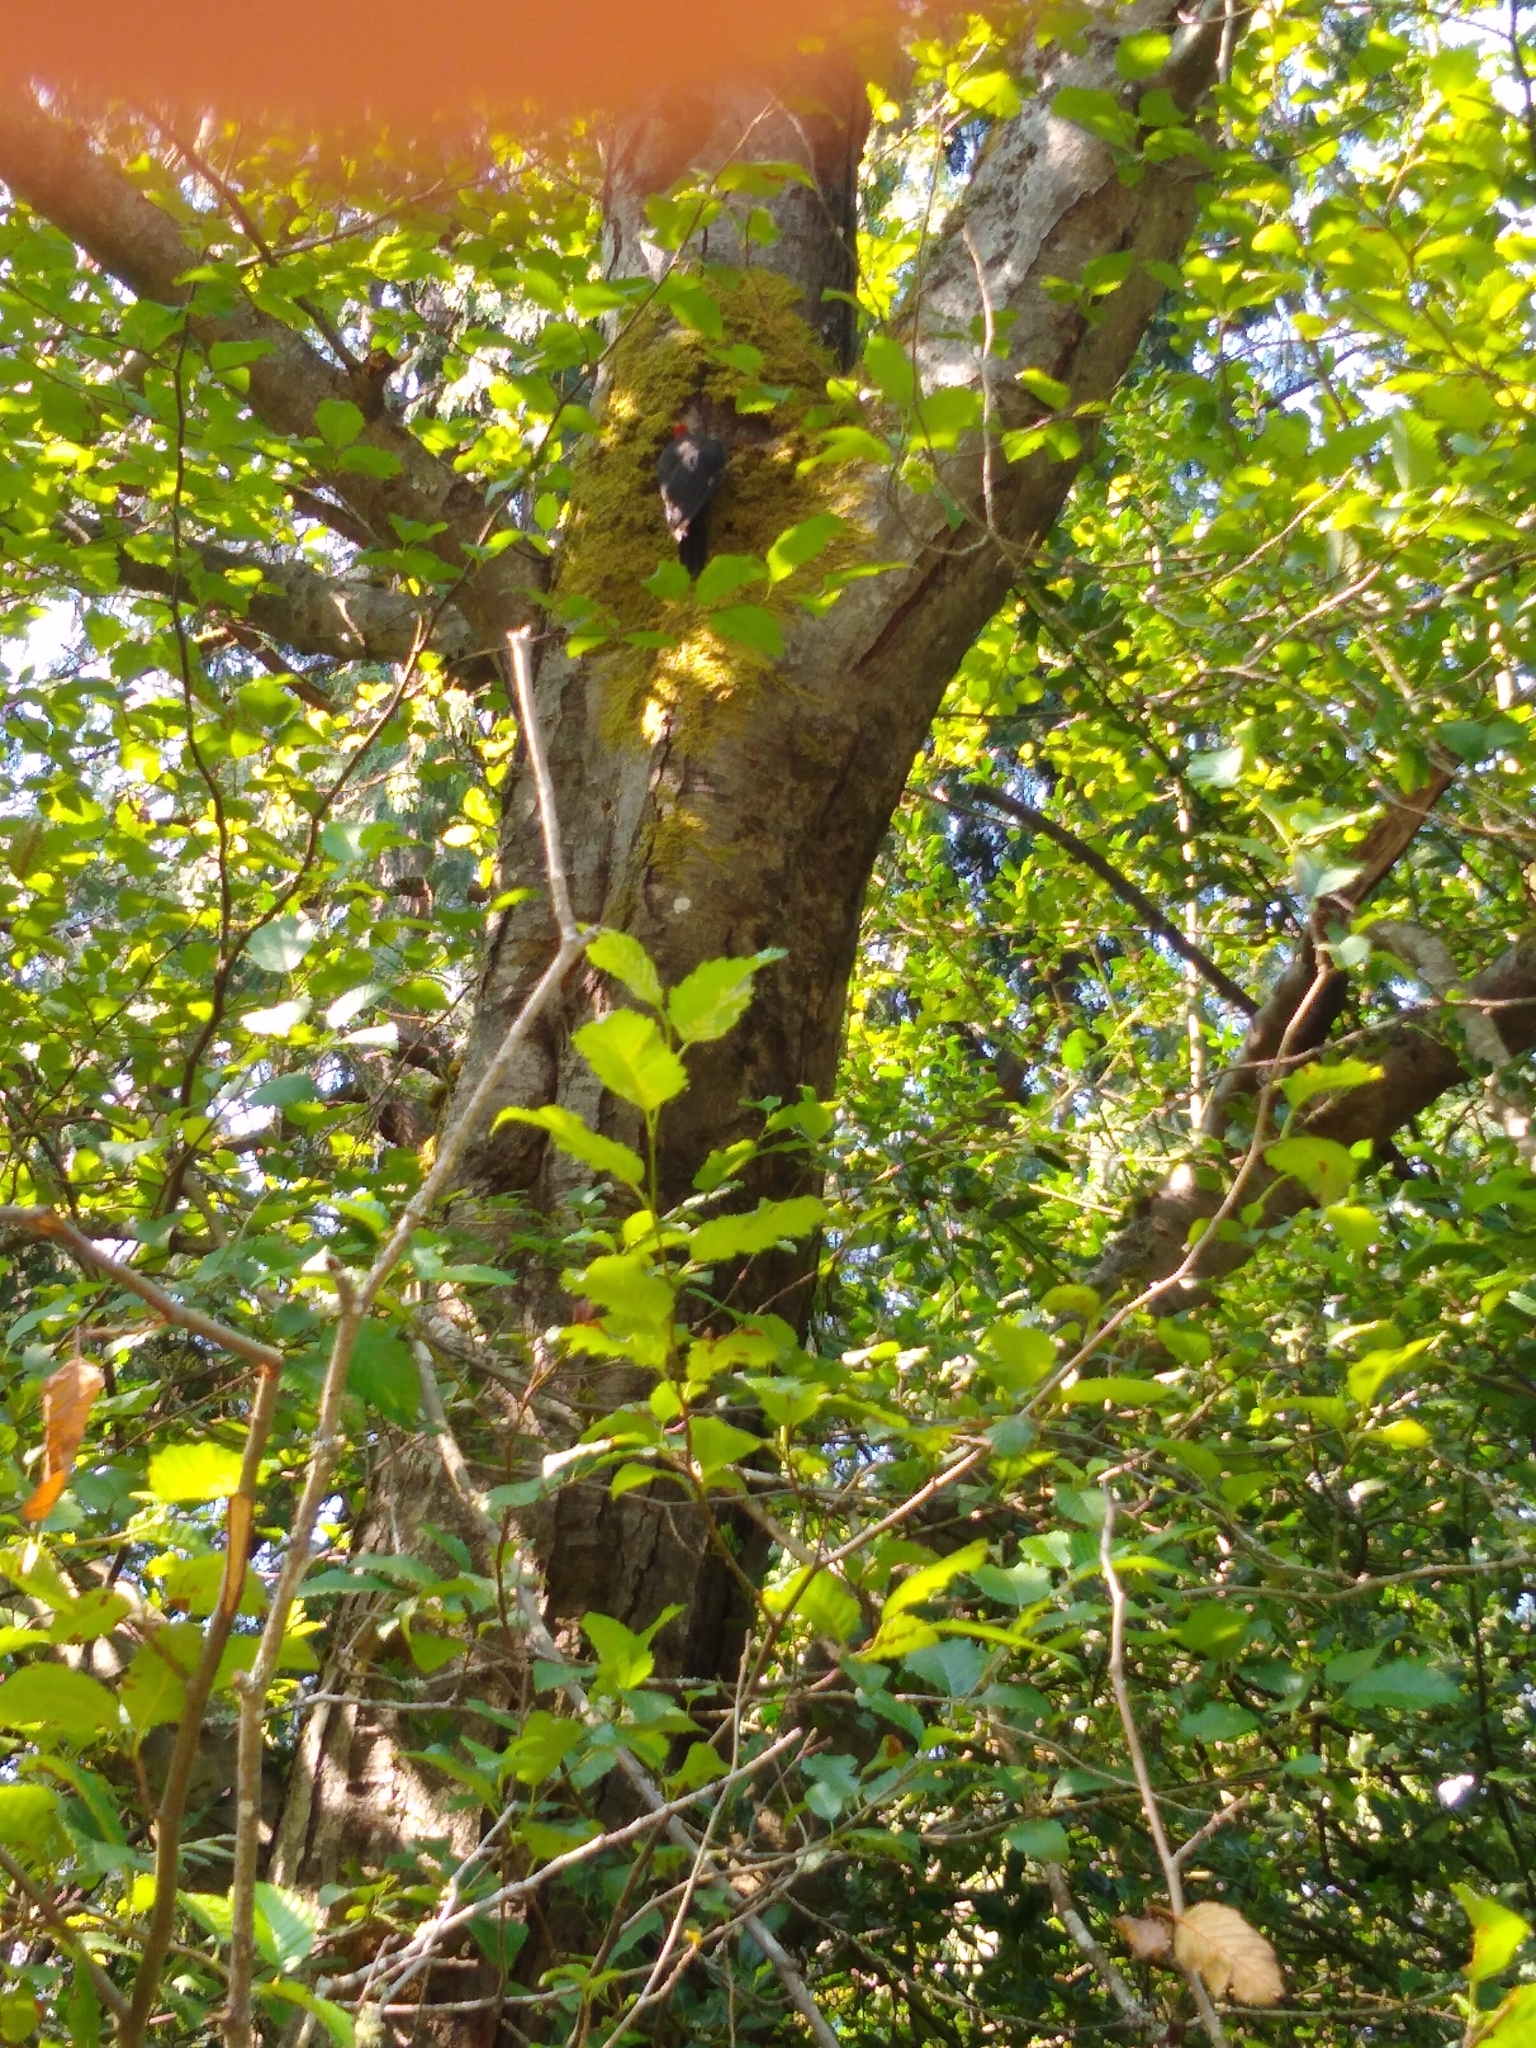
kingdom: Animalia
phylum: Chordata
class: Aves
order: Piciformes
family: Picidae
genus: Dryocopus
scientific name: Dryocopus pileatus
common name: Pileated woodpecker
